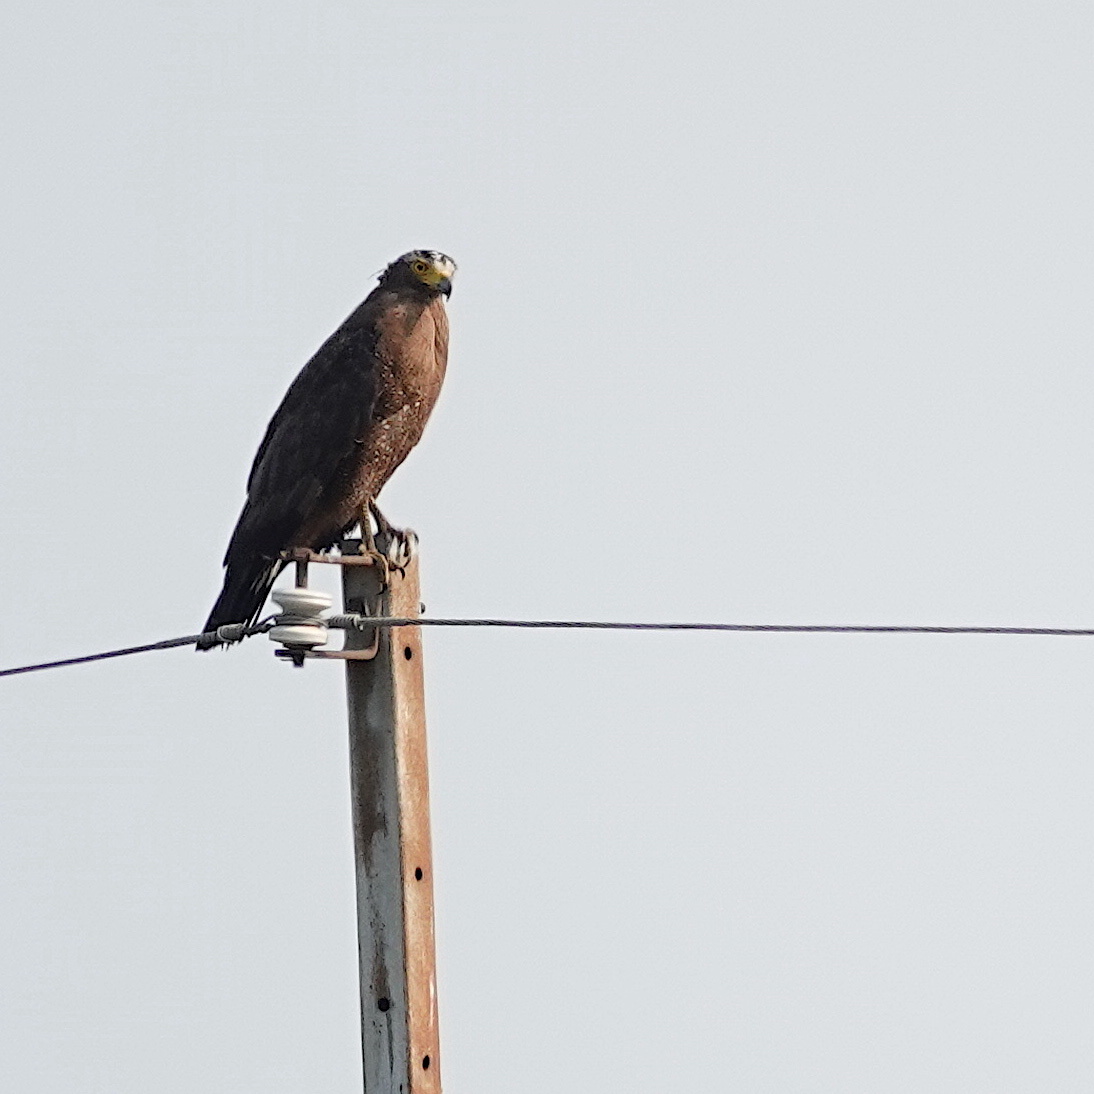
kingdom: Animalia
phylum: Chordata
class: Aves
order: Accipitriformes
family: Accipitridae
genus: Spilornis
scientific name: Spilornis cheela
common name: Crested serpent eagle
